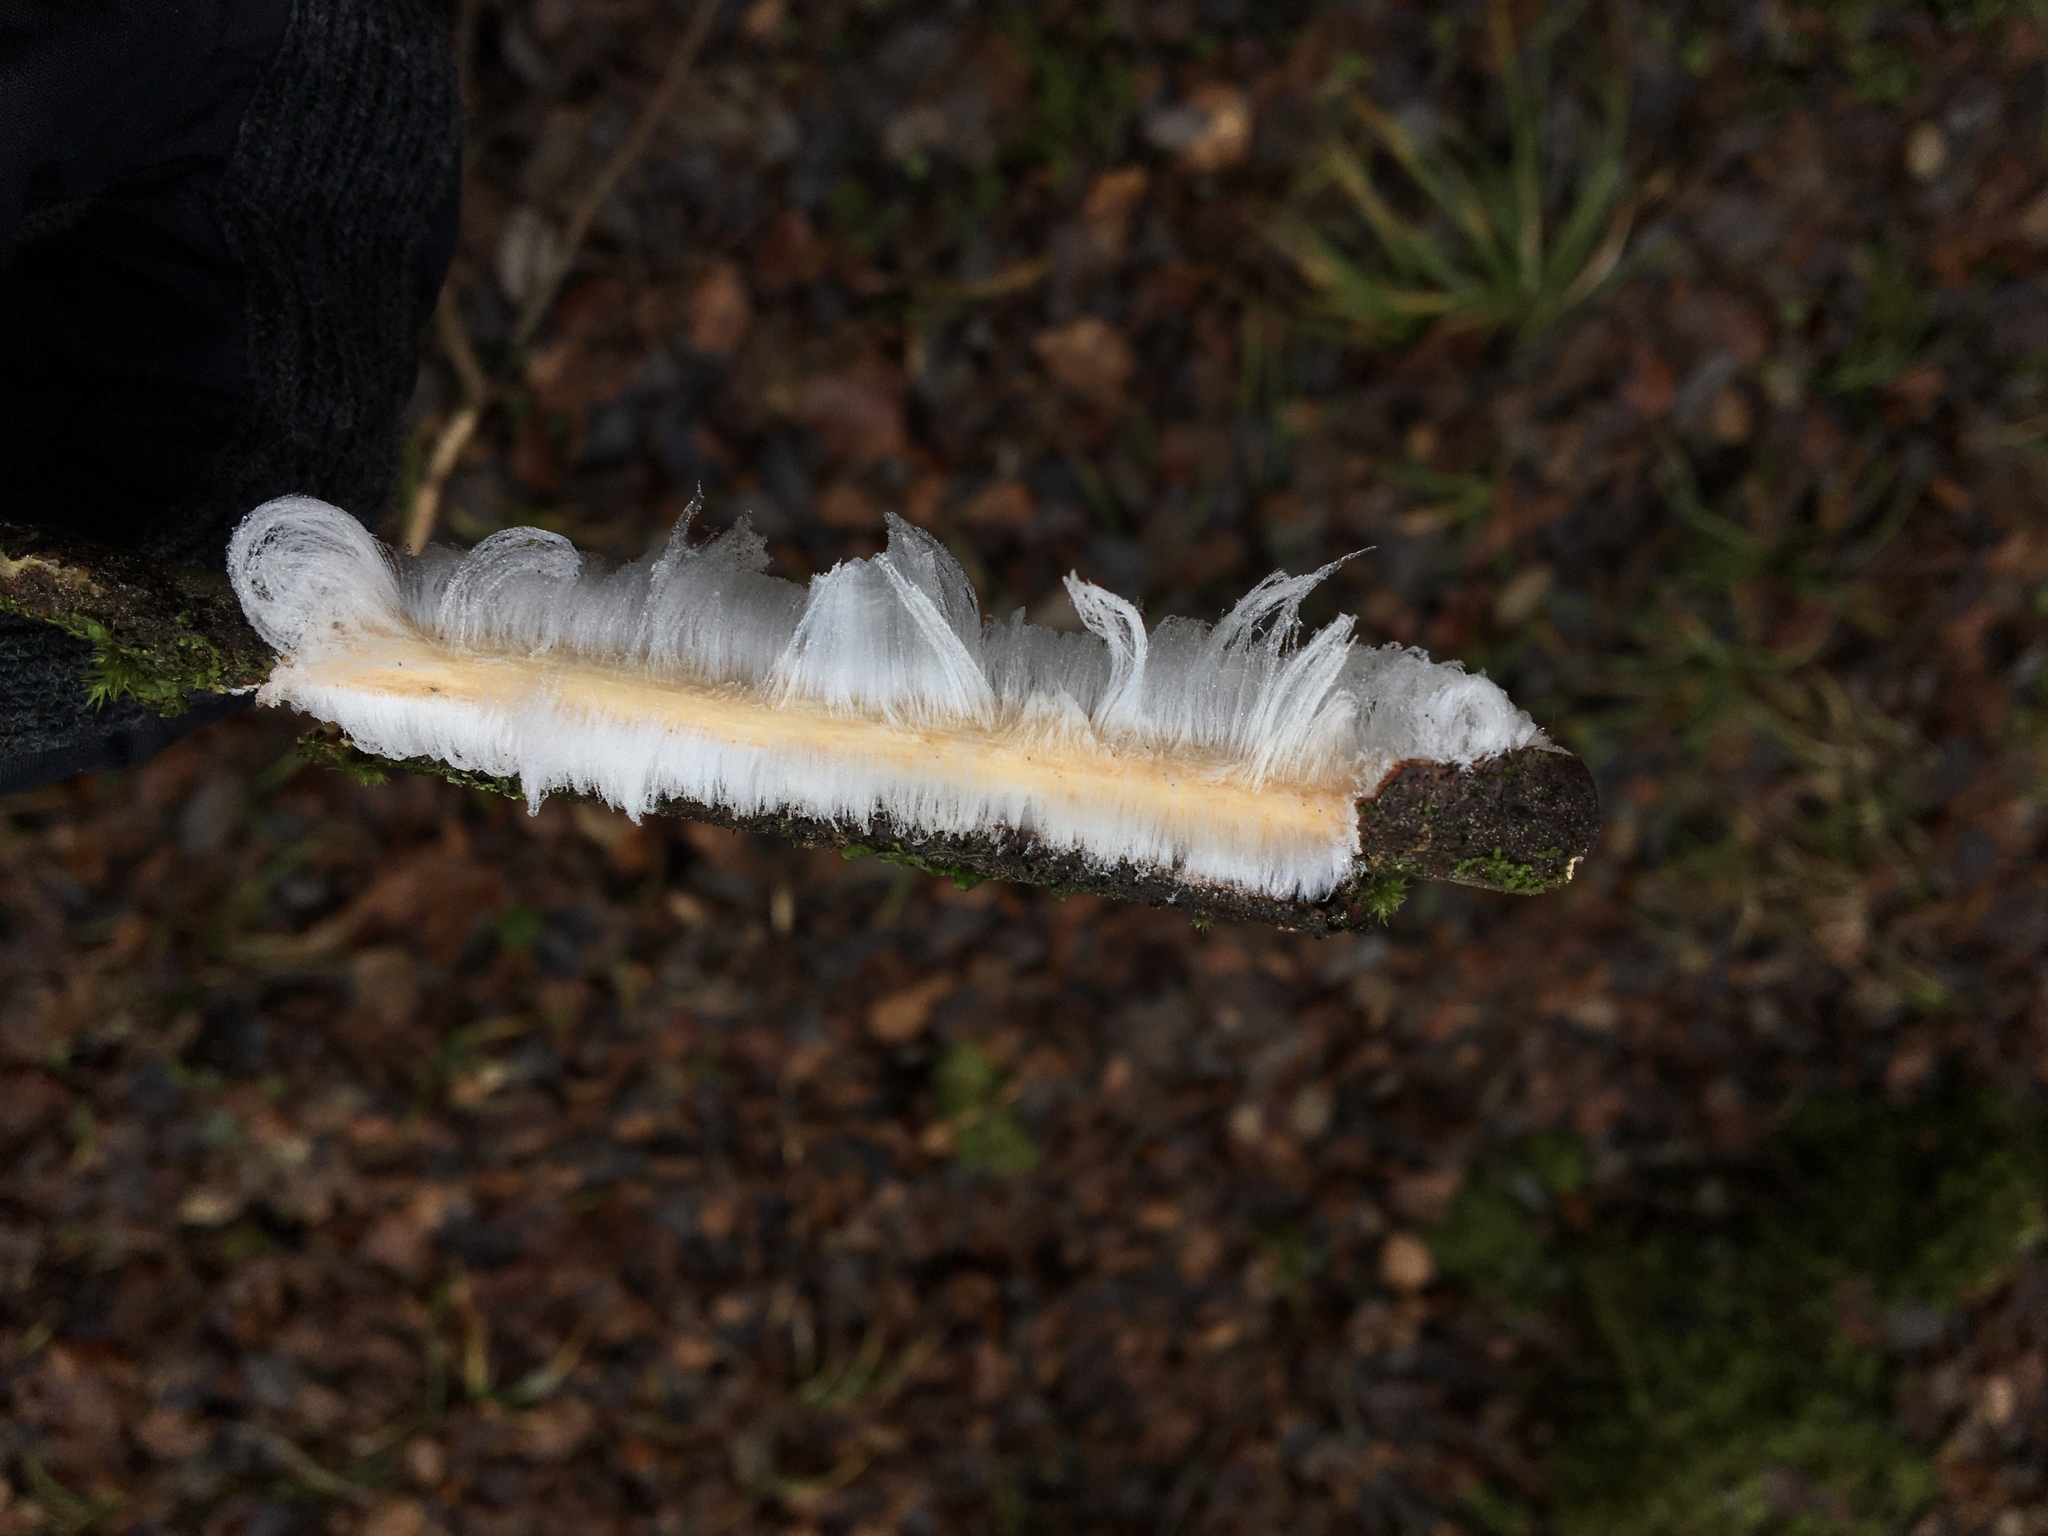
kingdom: Fungi
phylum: Basidiomycota
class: Agaricomycetes
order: Auriculariales
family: Auriculariaceae
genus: Exidiopsis
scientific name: Exidiopsis effusa
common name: Hair ice crust
